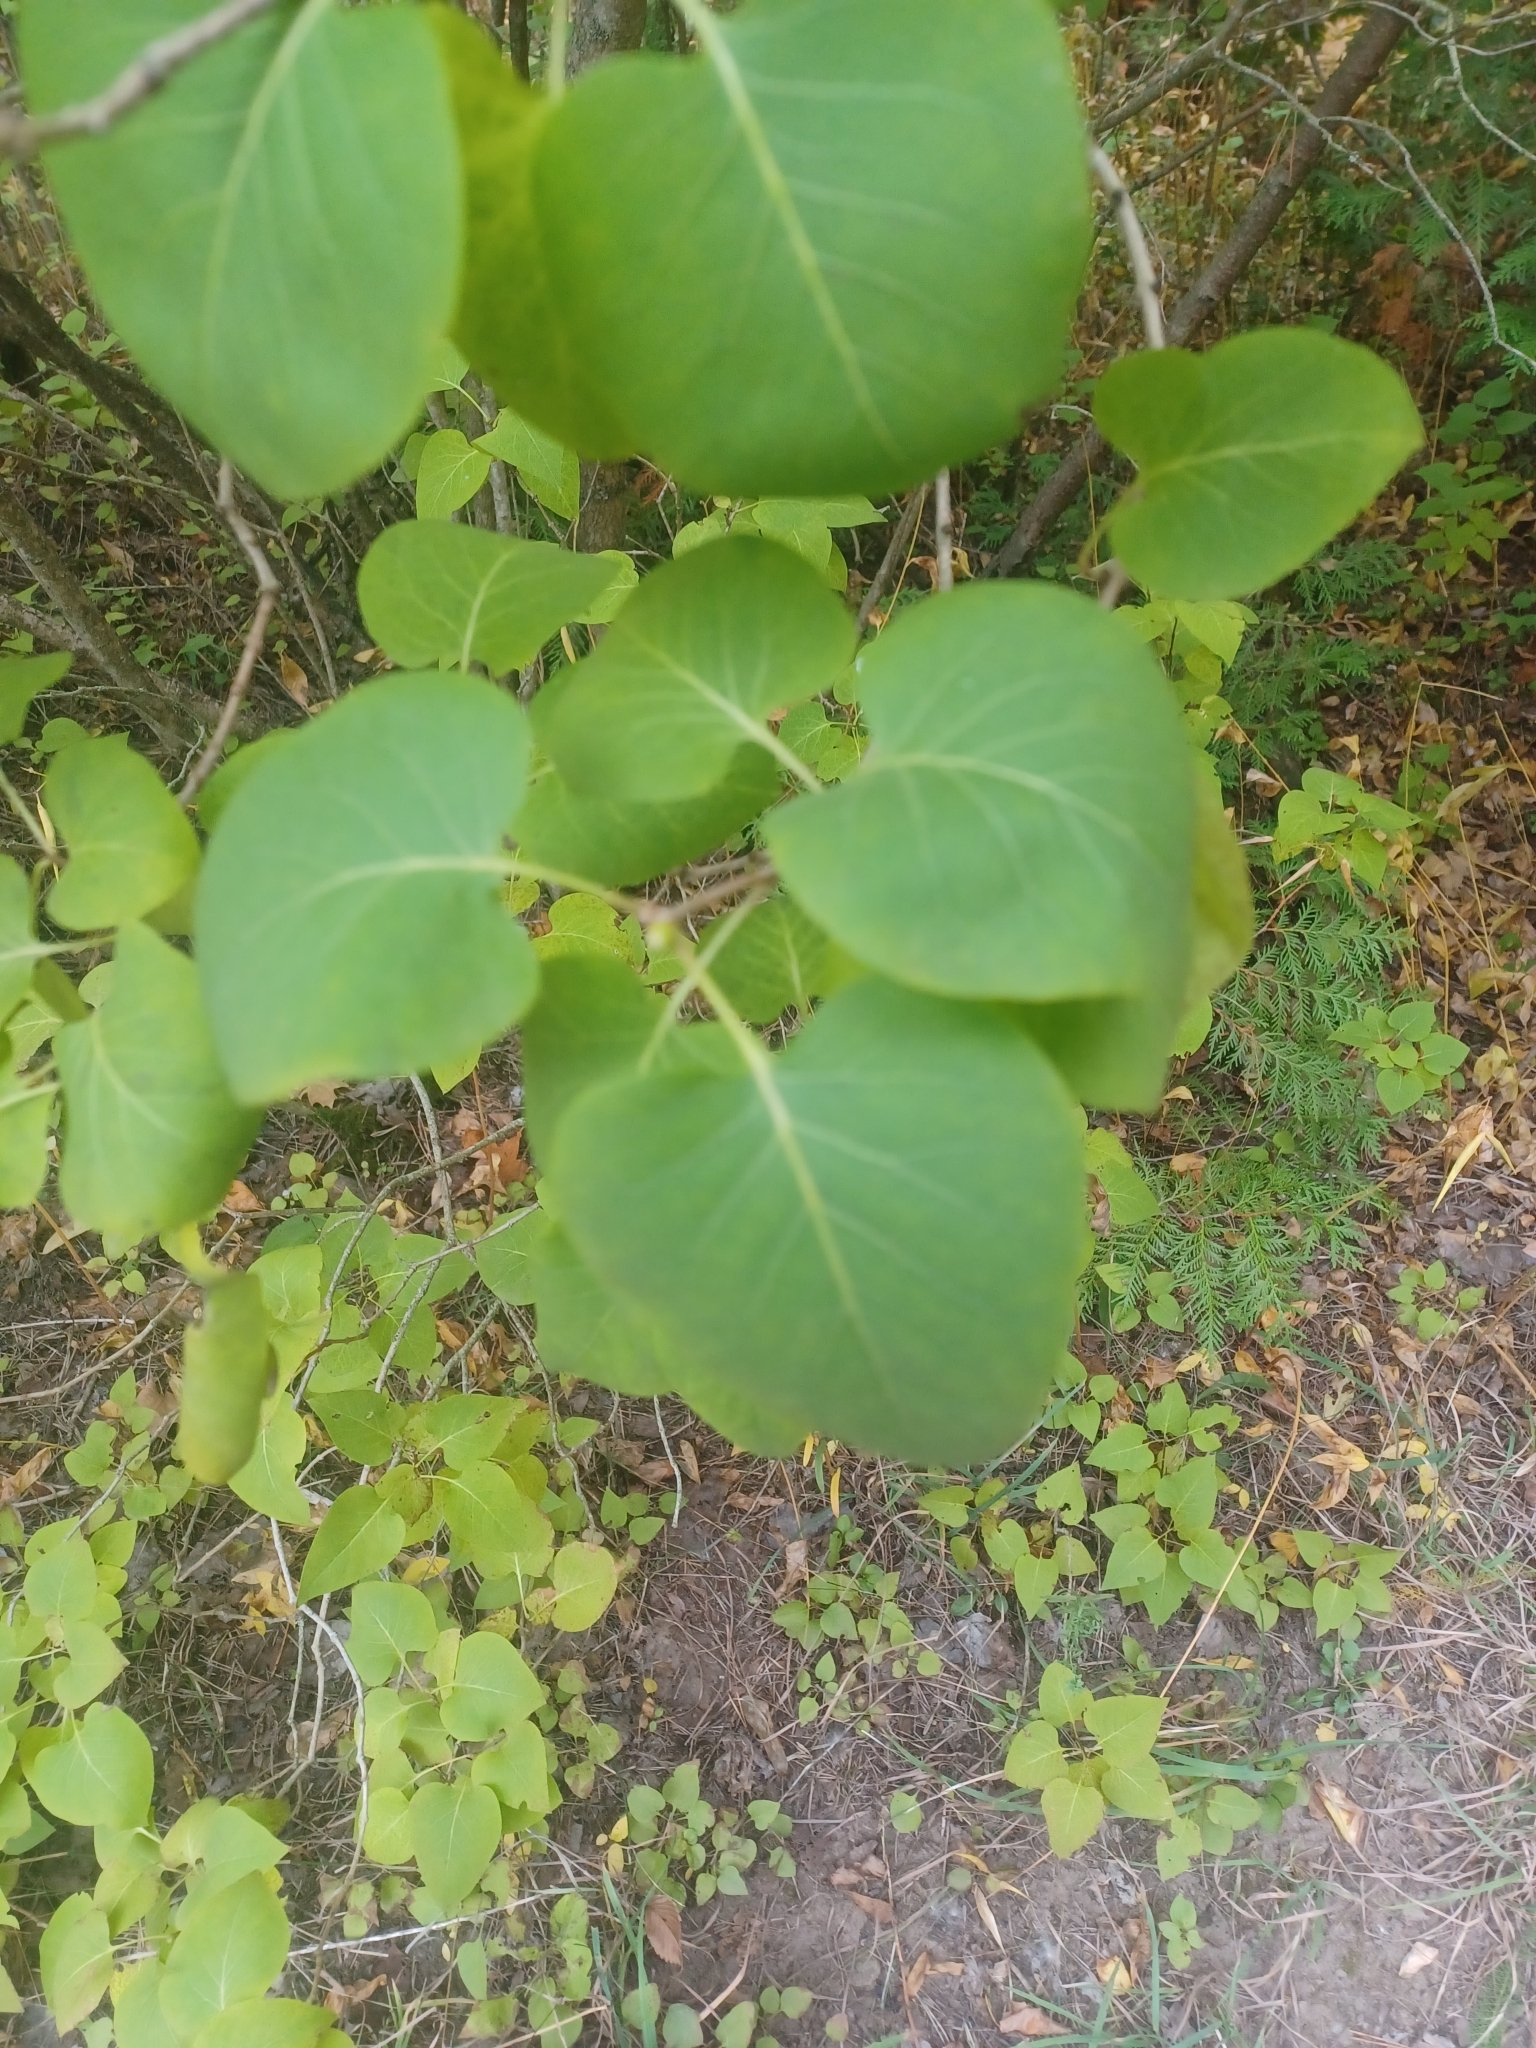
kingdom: Plantae
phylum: Tracheophyta
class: Magnoliopsida
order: Lamiales
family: Oleaceae
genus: Syringa
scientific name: Syringa vulgaris
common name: Common lilac
